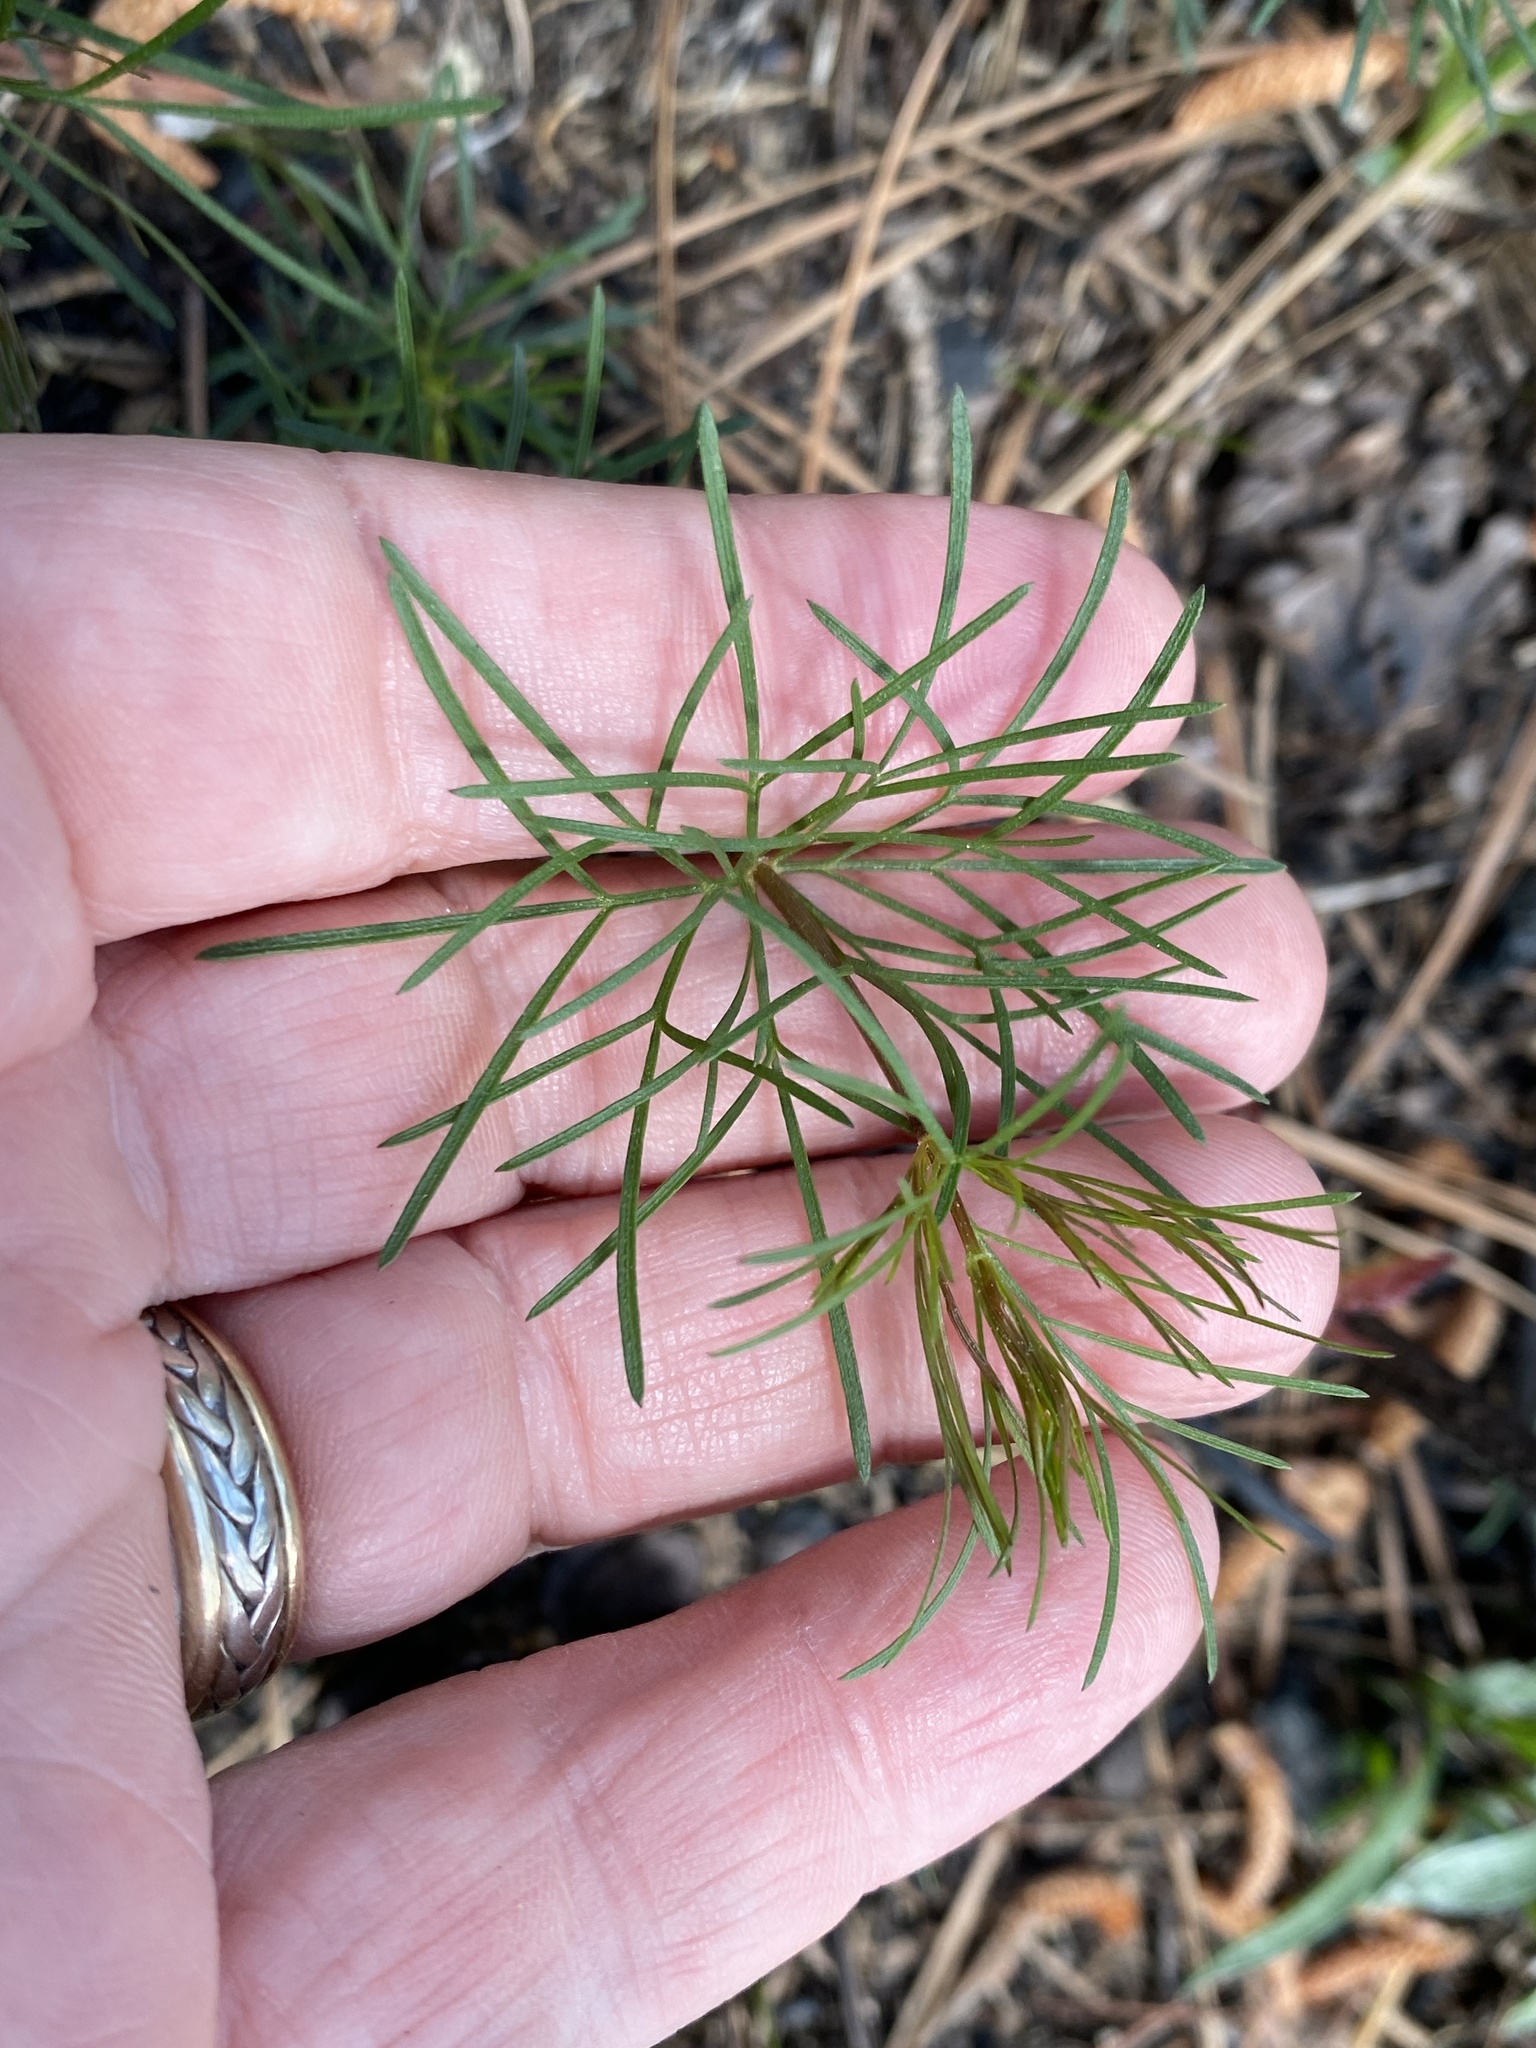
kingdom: Plantae
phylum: Tracheophyta
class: Magnoliopsida
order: Asterales
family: Asteraceae
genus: Coreopsis
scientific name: Coreopsis verticillata
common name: Whorled tickseed
